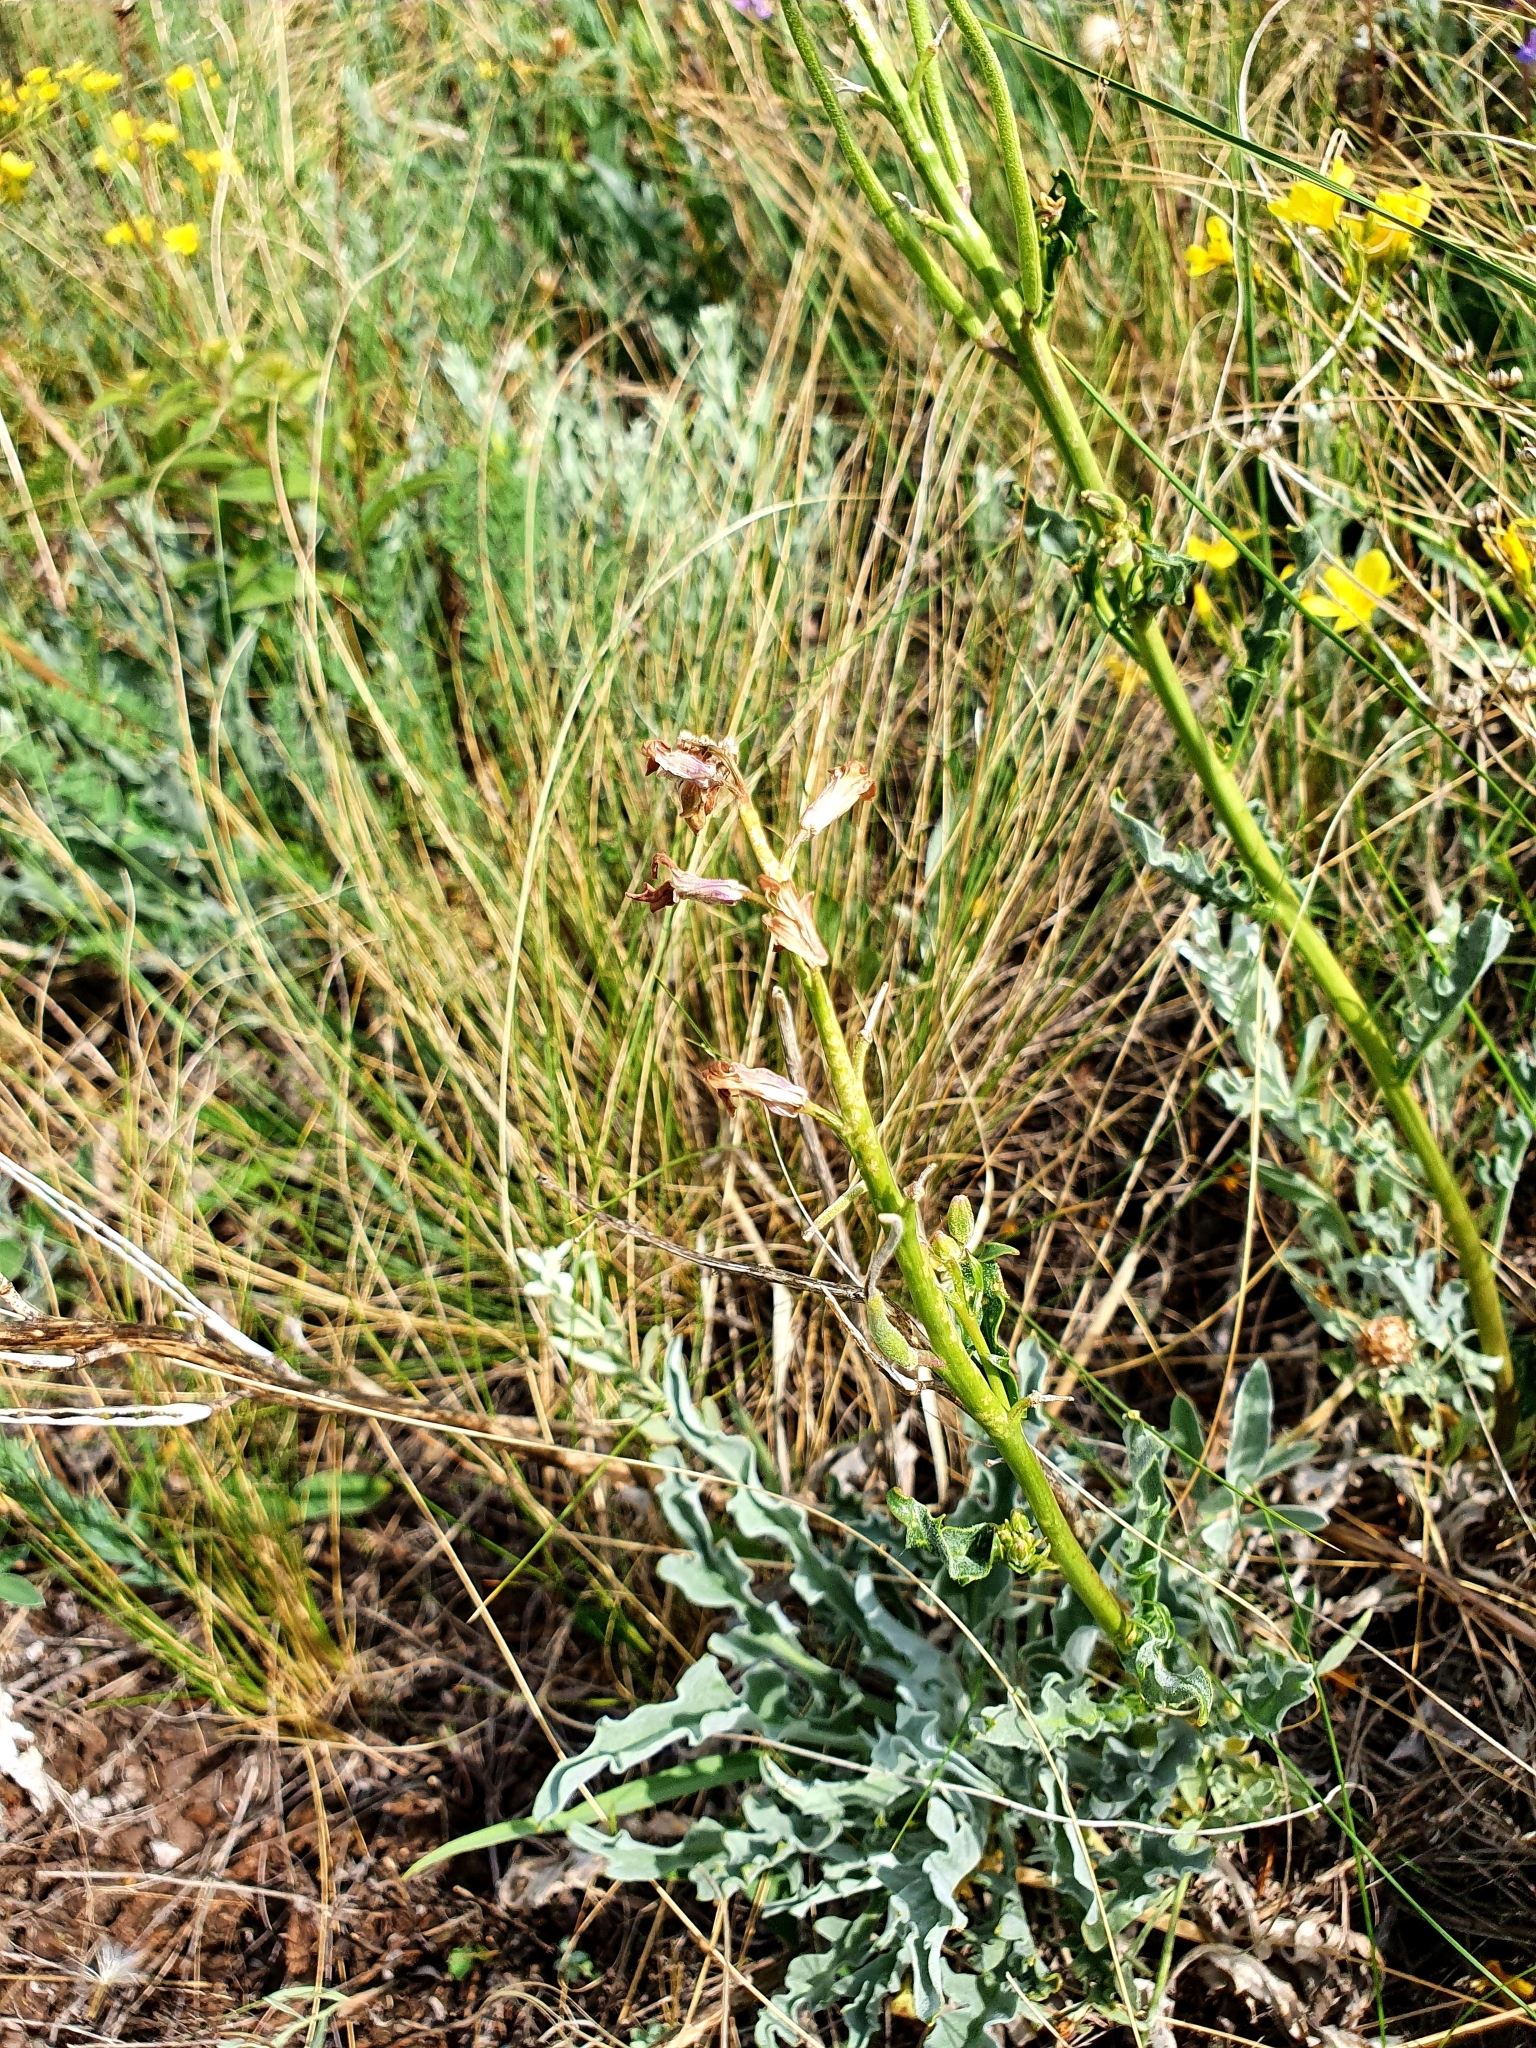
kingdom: Plantae
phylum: Tracheophyta
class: Magnoliopsida
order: Brassicales
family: Brassicaceae
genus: Matthiola
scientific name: Matthiola fragrans
